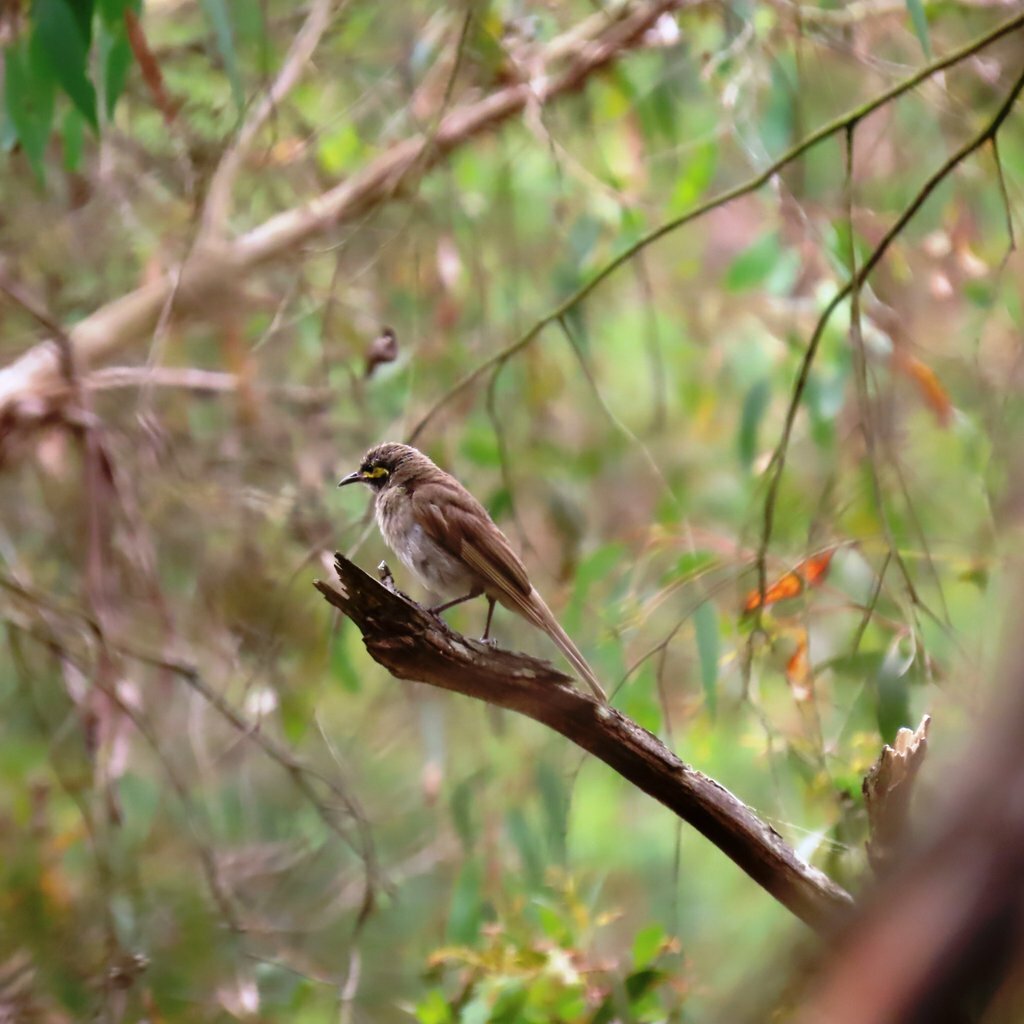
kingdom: Animalia
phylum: Chordata
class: Aves
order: Passeriformes
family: Meliphagidae
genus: Caligavis
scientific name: Caligavis chrysops
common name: Yellow-faced honeyeater
